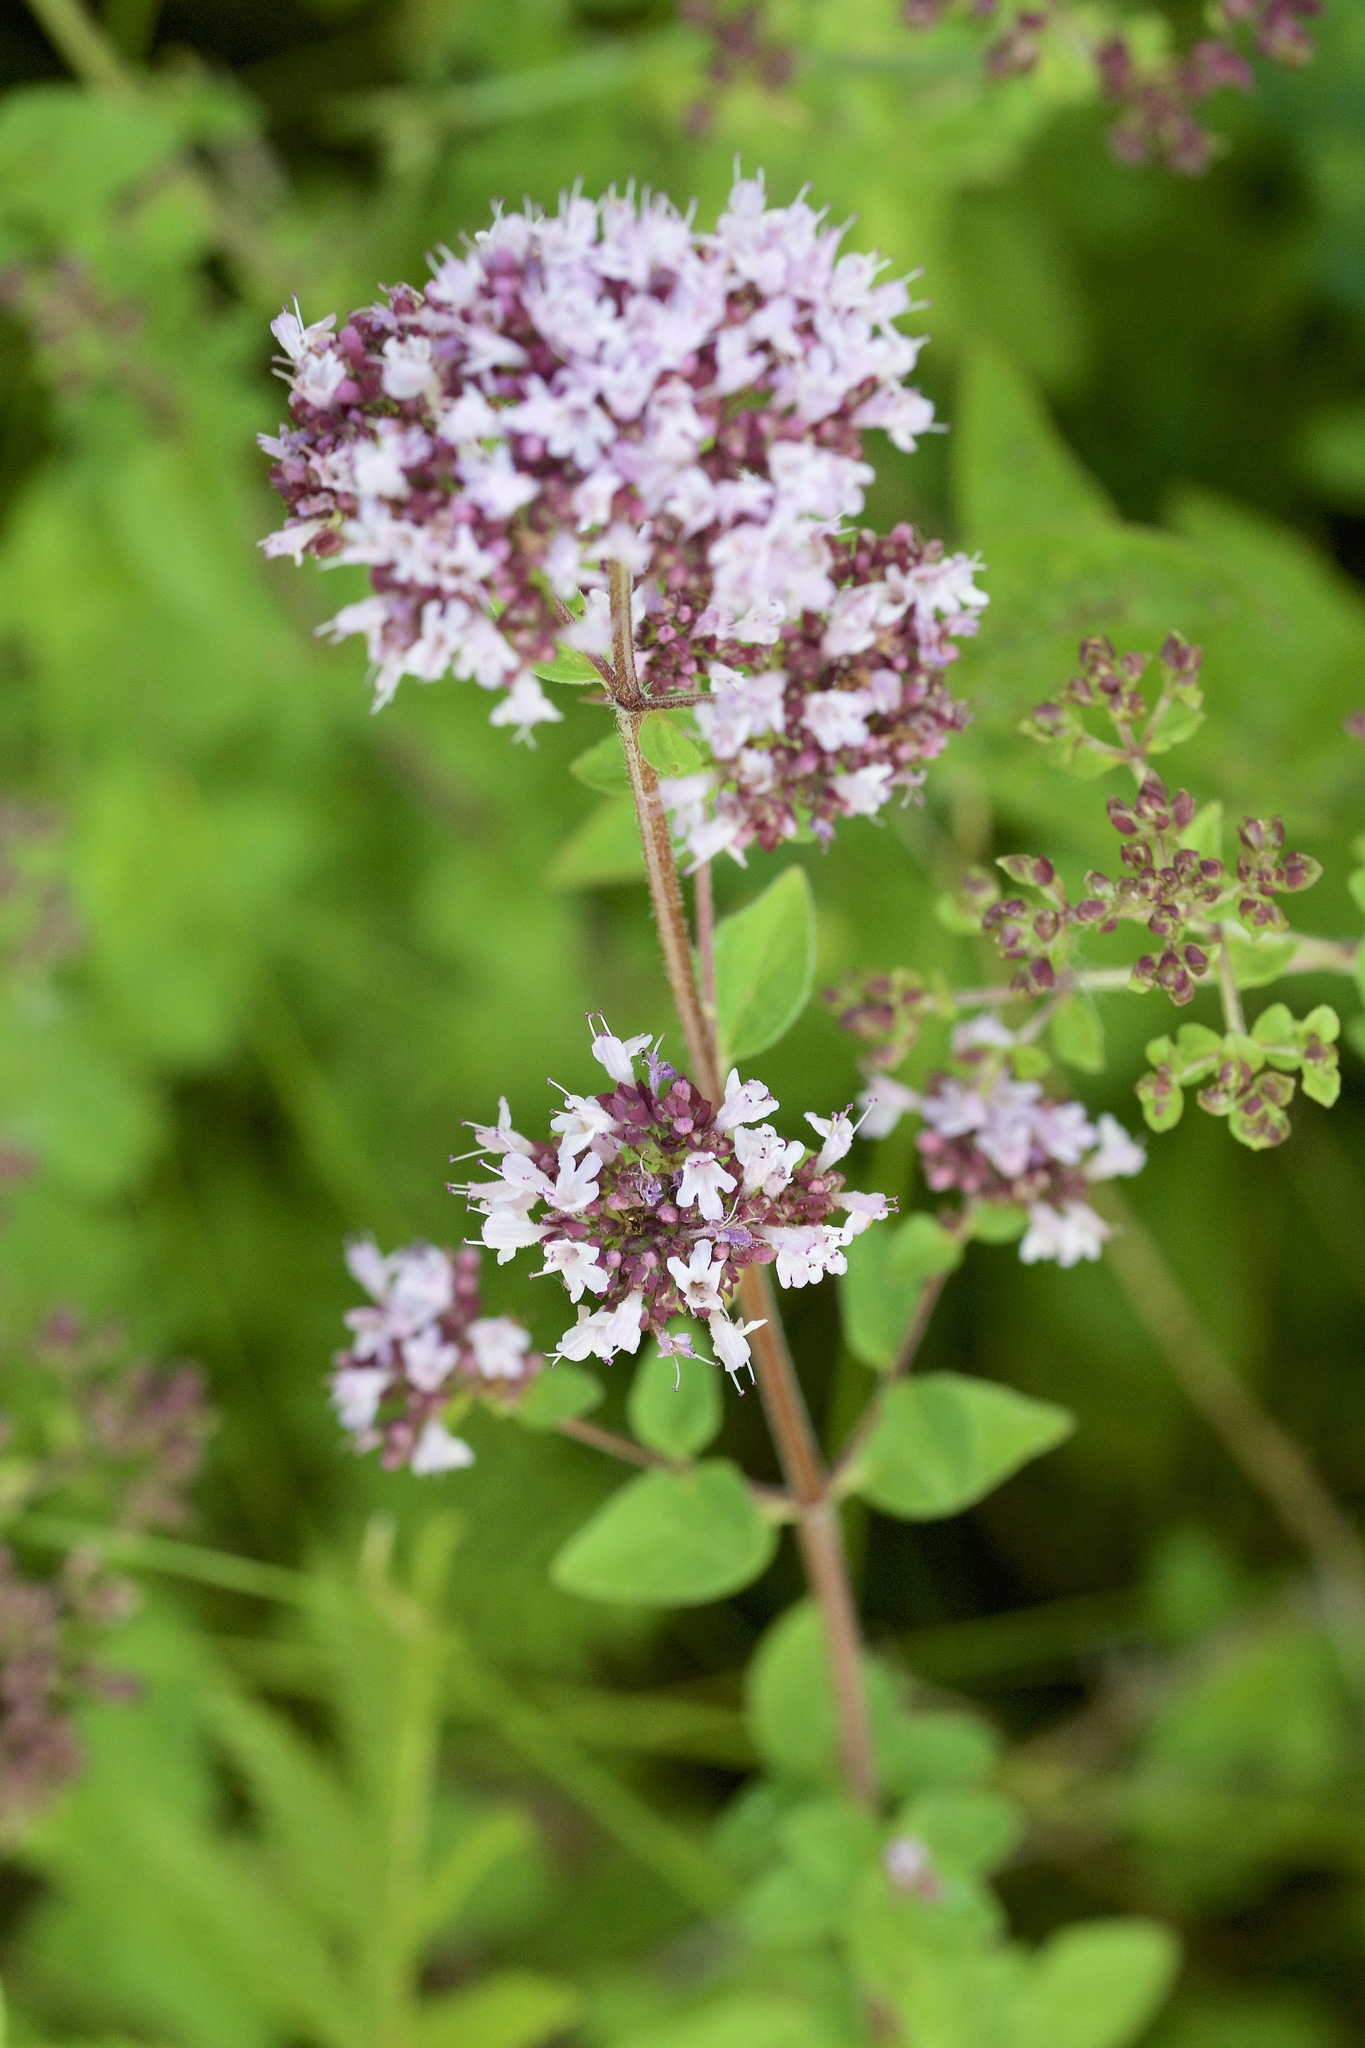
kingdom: Plantae
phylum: Tracheophyta
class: Magnoliopsida
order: Lamiales
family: Lamiaceae
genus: Origanum
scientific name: Origanum vulgare
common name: Wild marjoram
